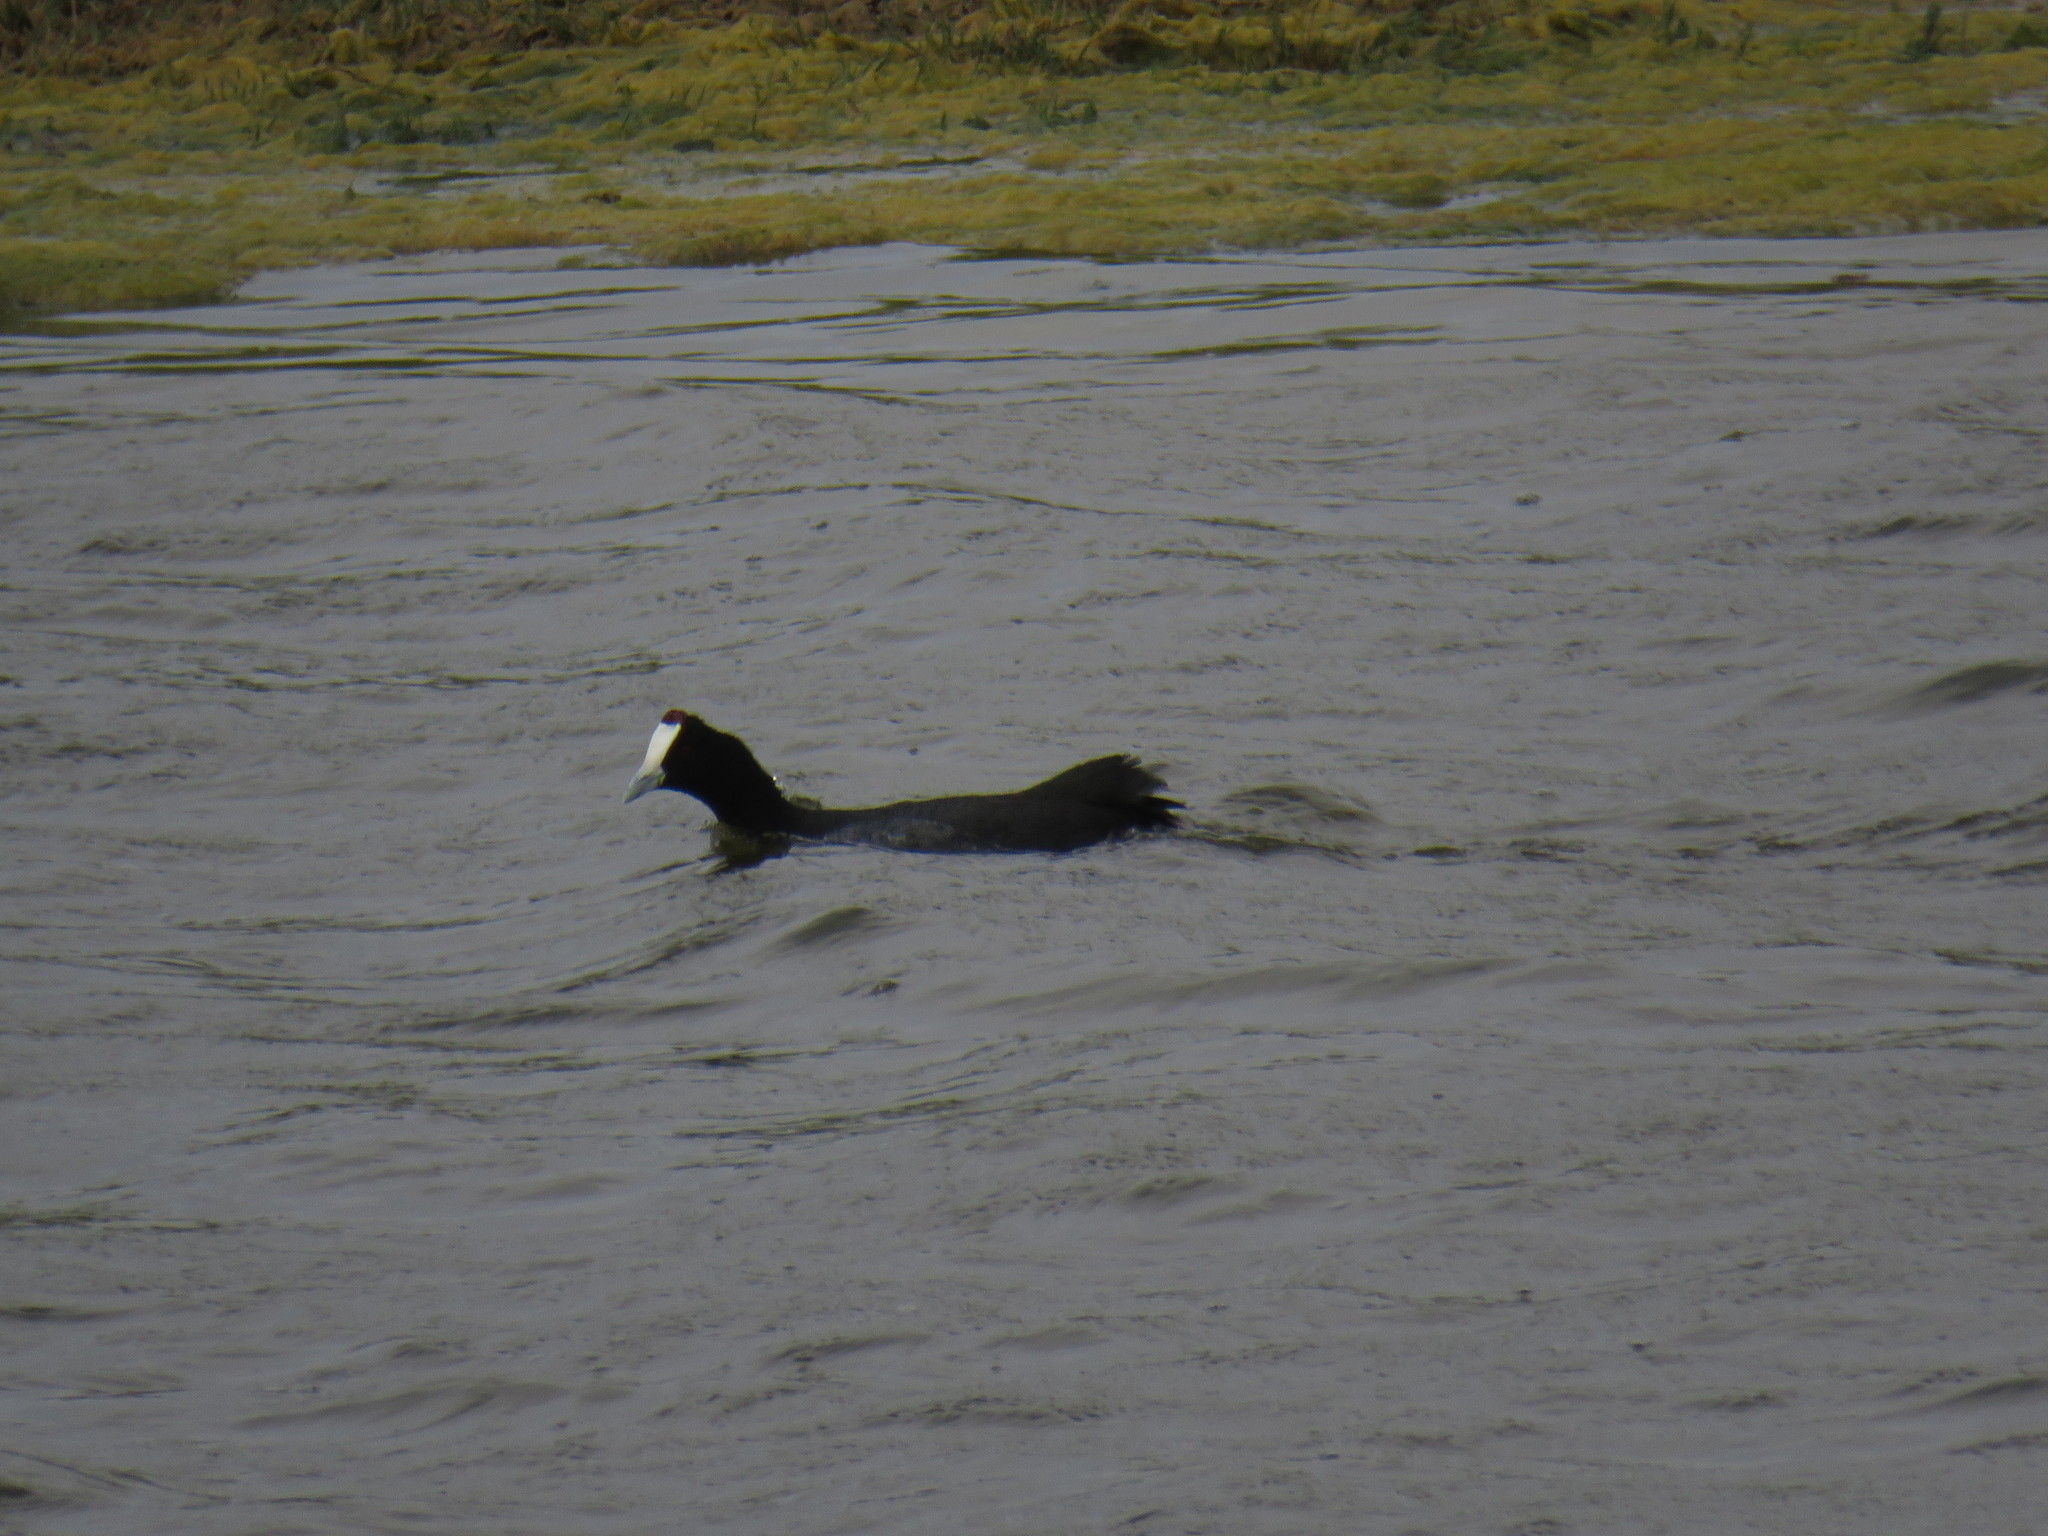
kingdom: Animalia
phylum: Chordata
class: Aves
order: Gruiformes
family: Rallidae
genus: Fulica
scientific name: Fulica cristata
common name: Red-knobbed coot
